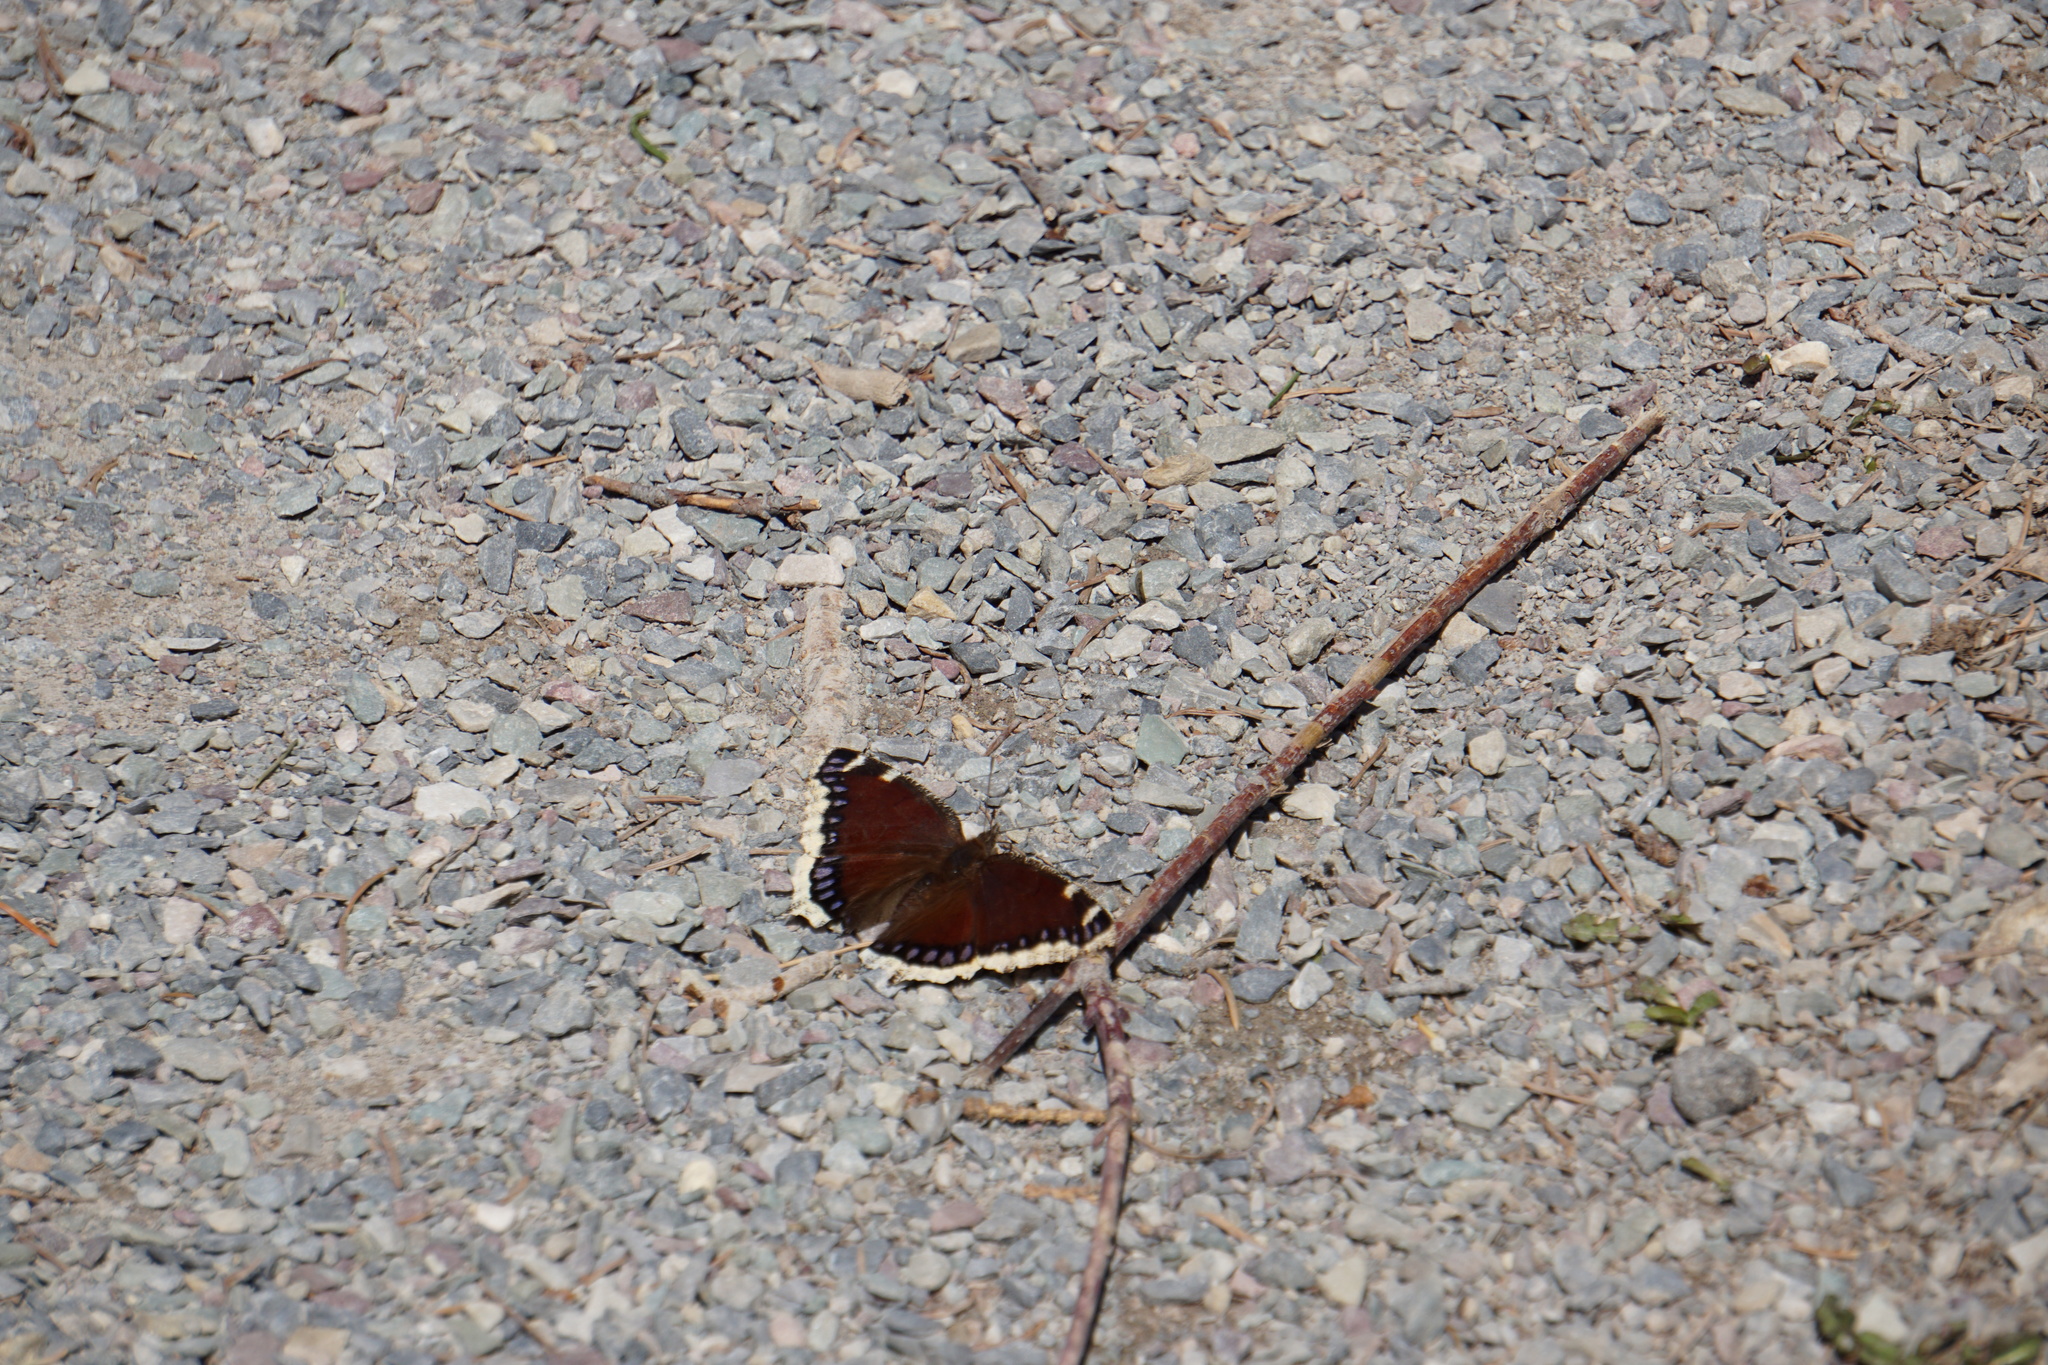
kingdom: Animalia
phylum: Arthropoda
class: Insecta
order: Lepidoptera
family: Nymphalidae
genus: Nymphalis
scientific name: Nymphalis antiopa
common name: Camberwell beauty
